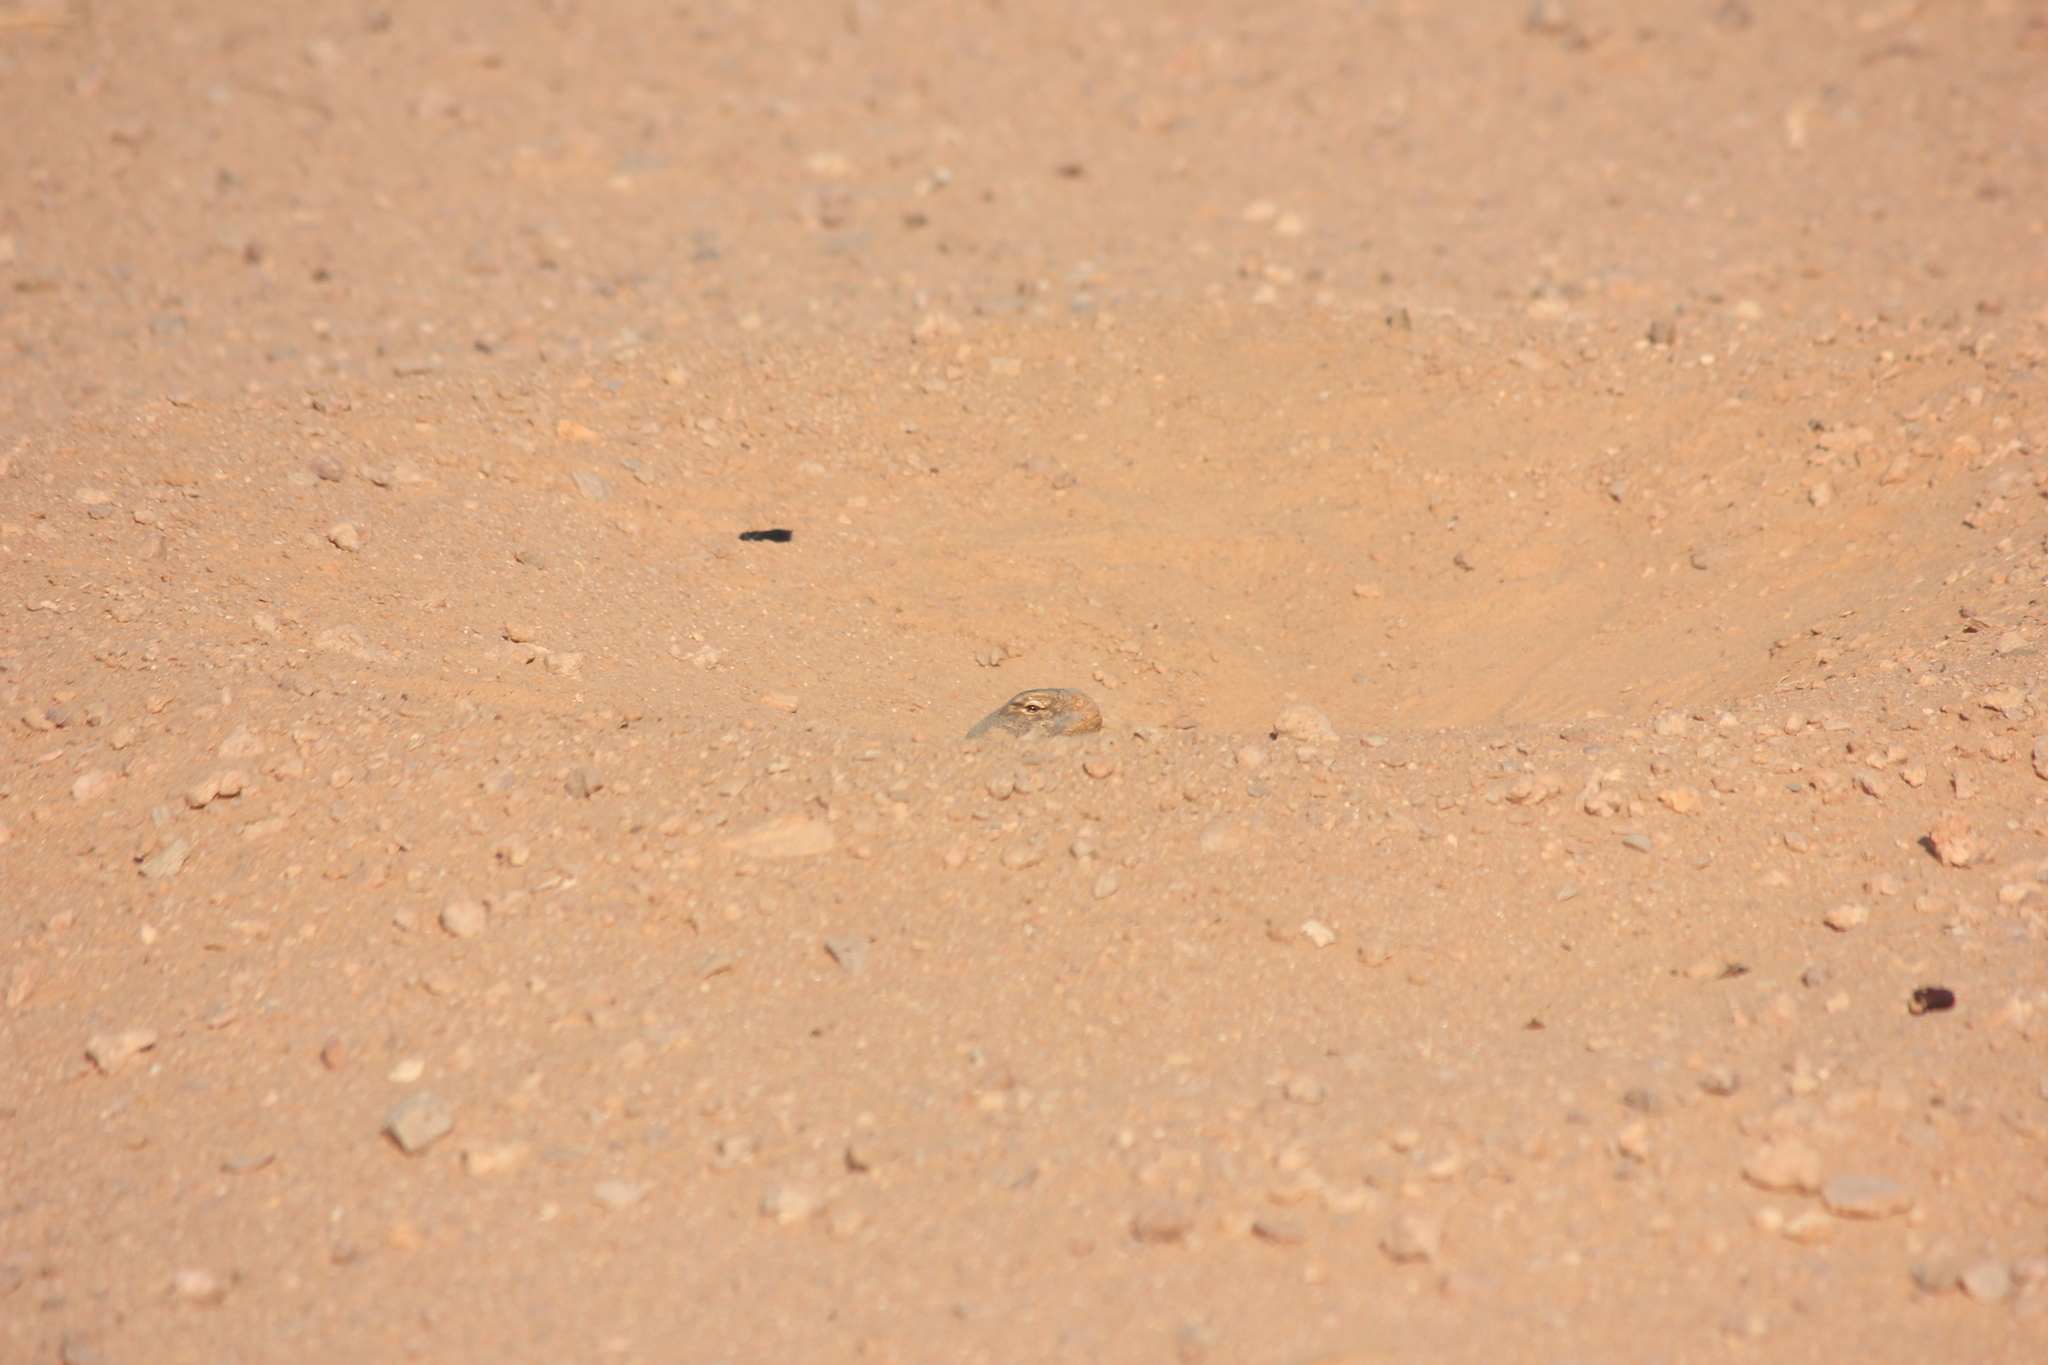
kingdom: Animalia
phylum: Chordata
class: Squamata
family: Agamidae
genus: Uromastyx
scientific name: Uromastyx aegyptia
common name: Egyptian mastigure
